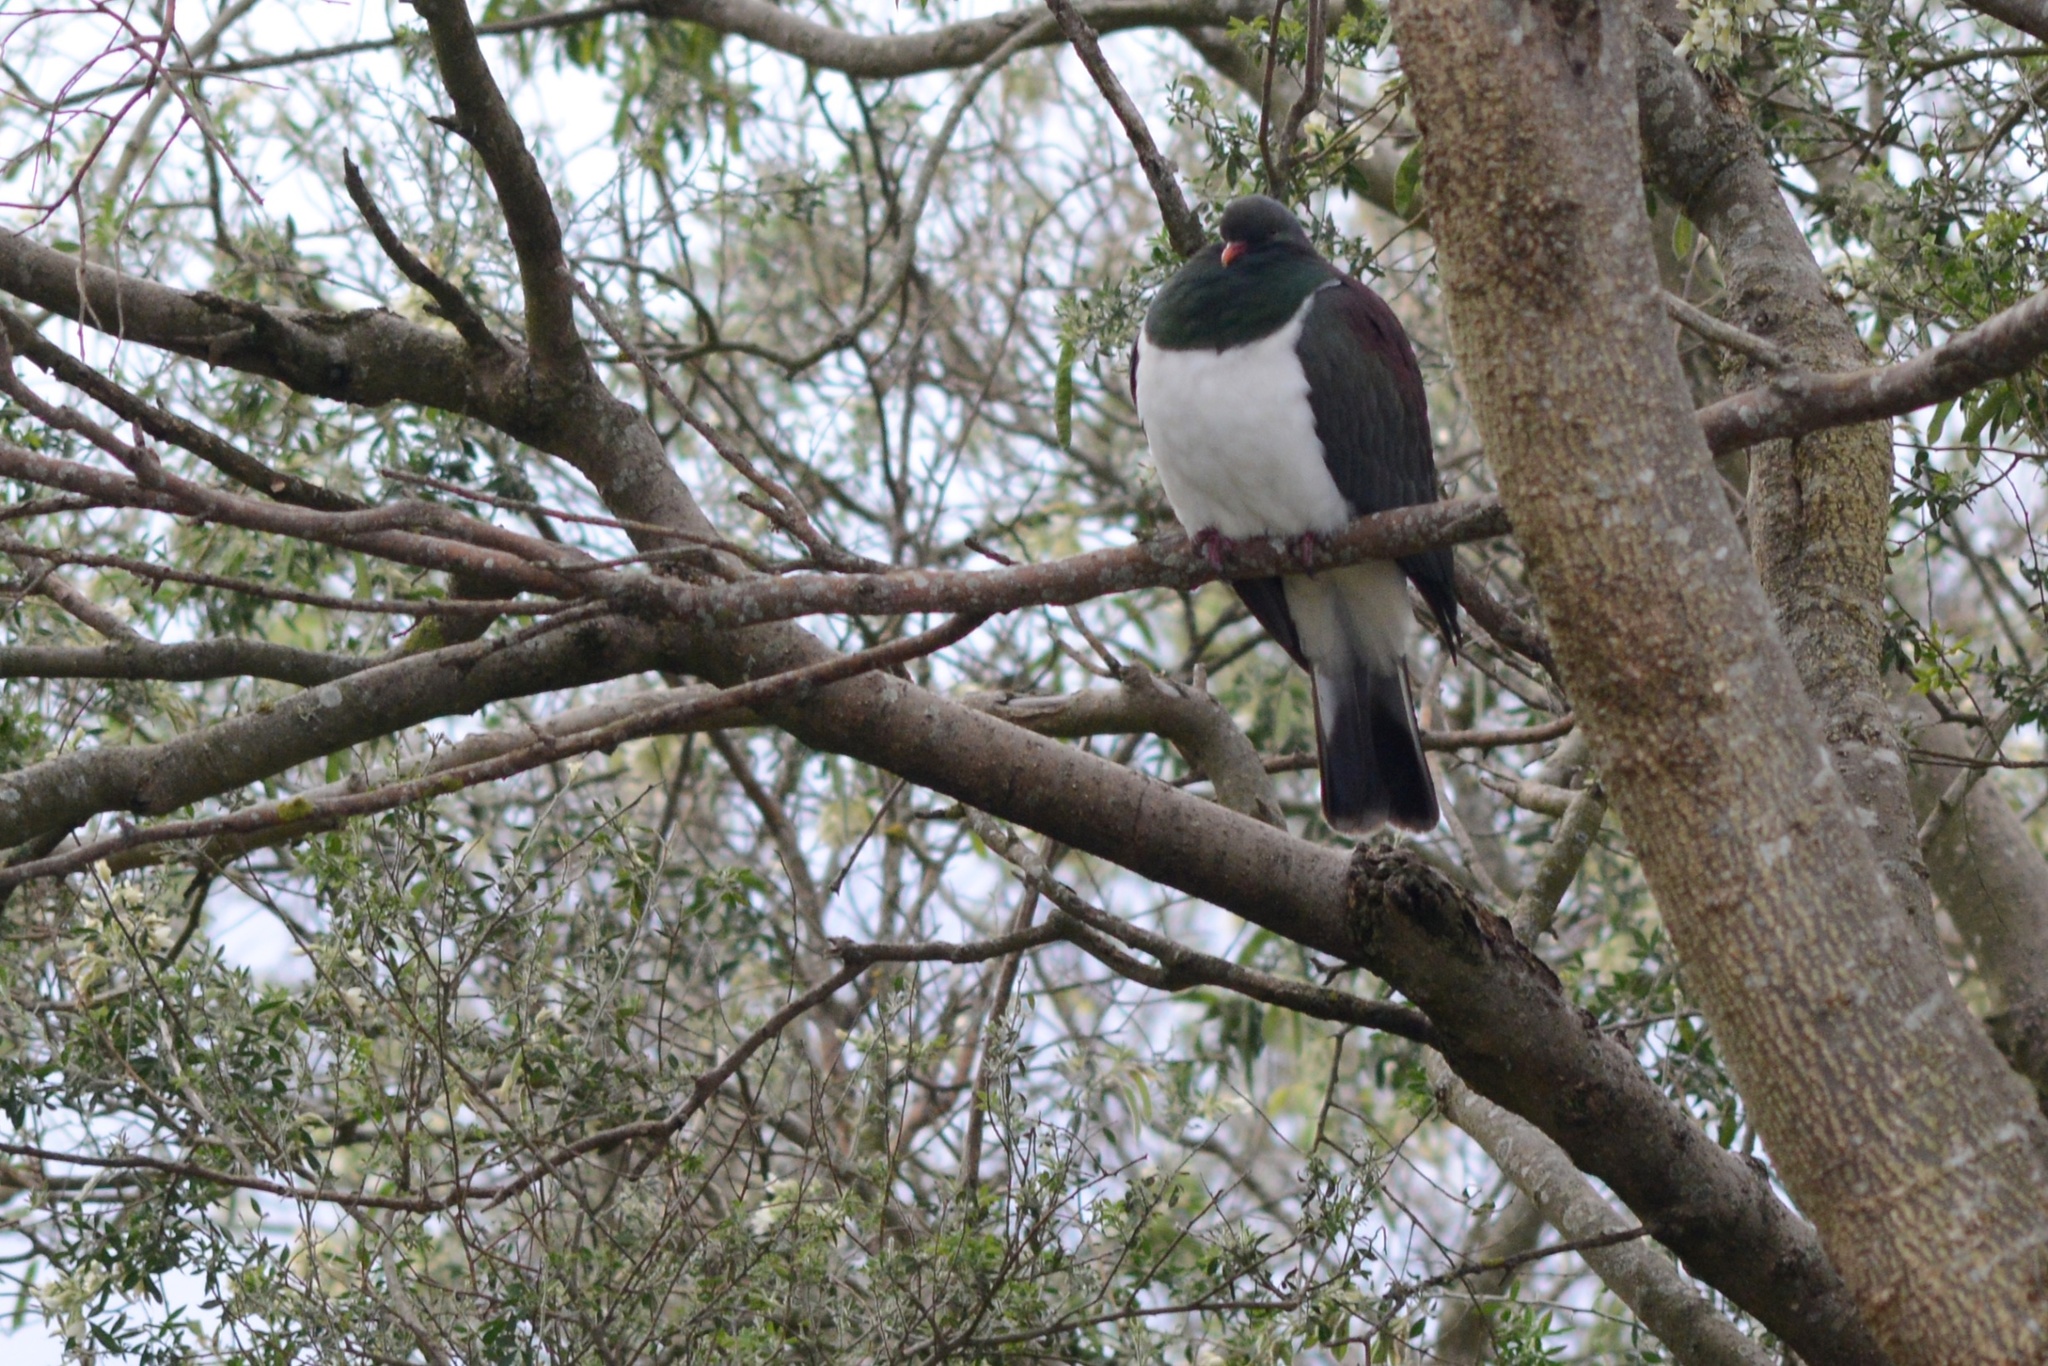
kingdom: Animalia
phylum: Chordata
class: Aves
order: Columbiformes
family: Columbidae
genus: Hemiphaga
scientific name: Hemiphaga novaeseelandiae
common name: New zealand pigeon
